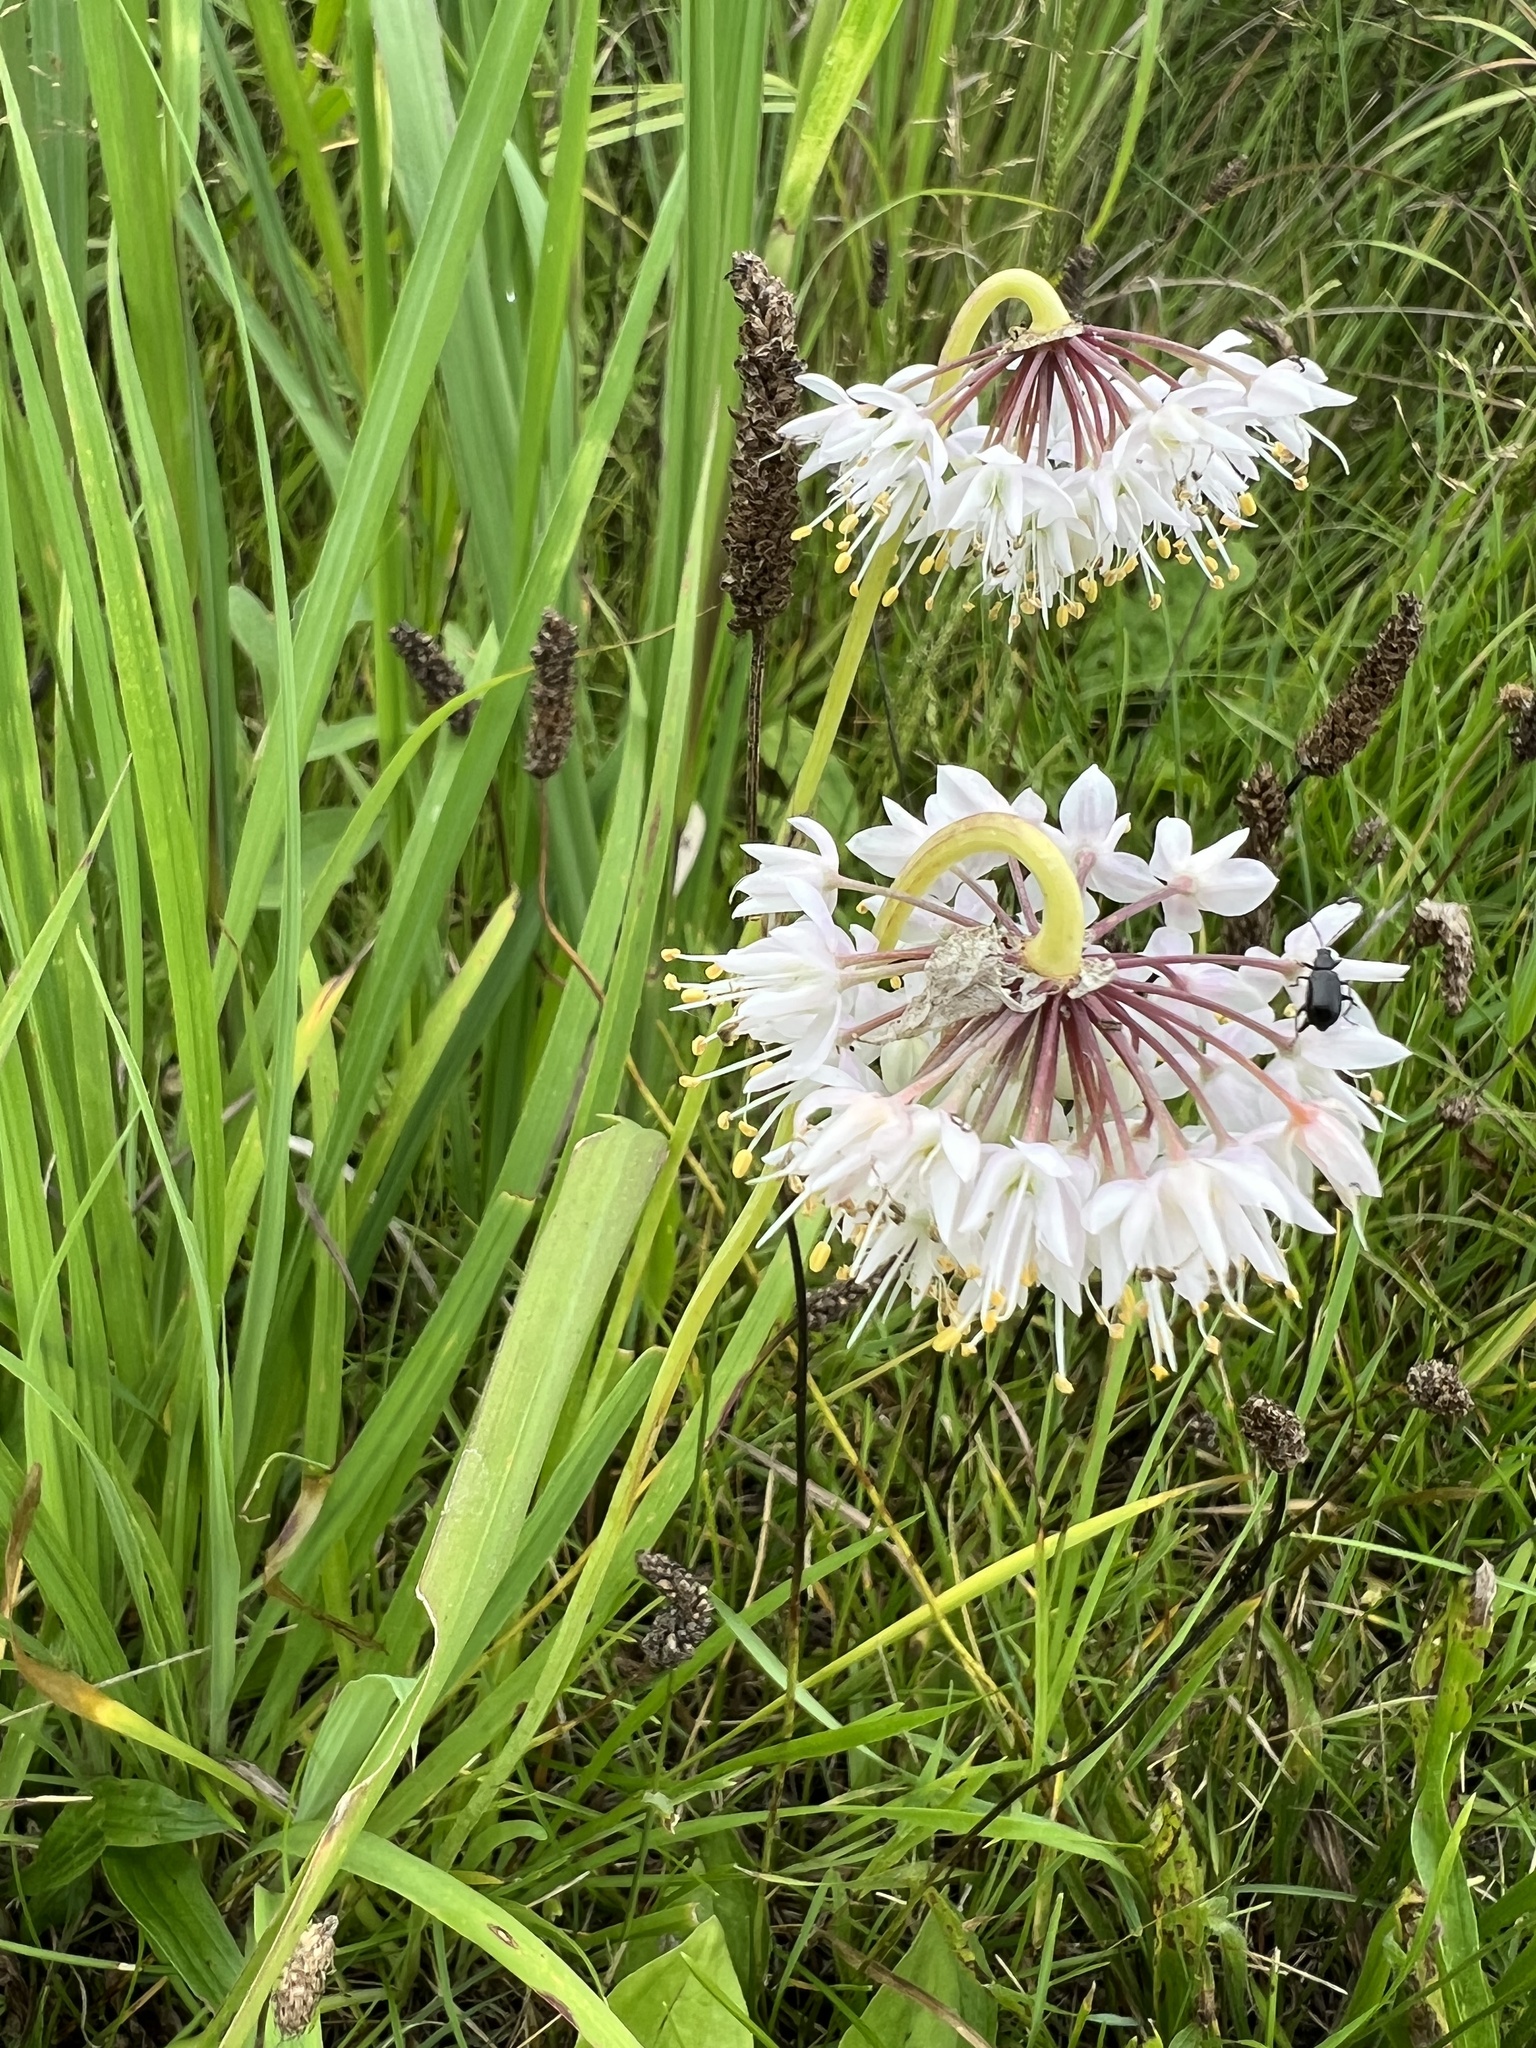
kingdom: Plantae
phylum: Tracheophyta
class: Liliopsida
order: Asparagales
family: Amaryllidaceae
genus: Allium
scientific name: Allium cernuum
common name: Nodding onion
